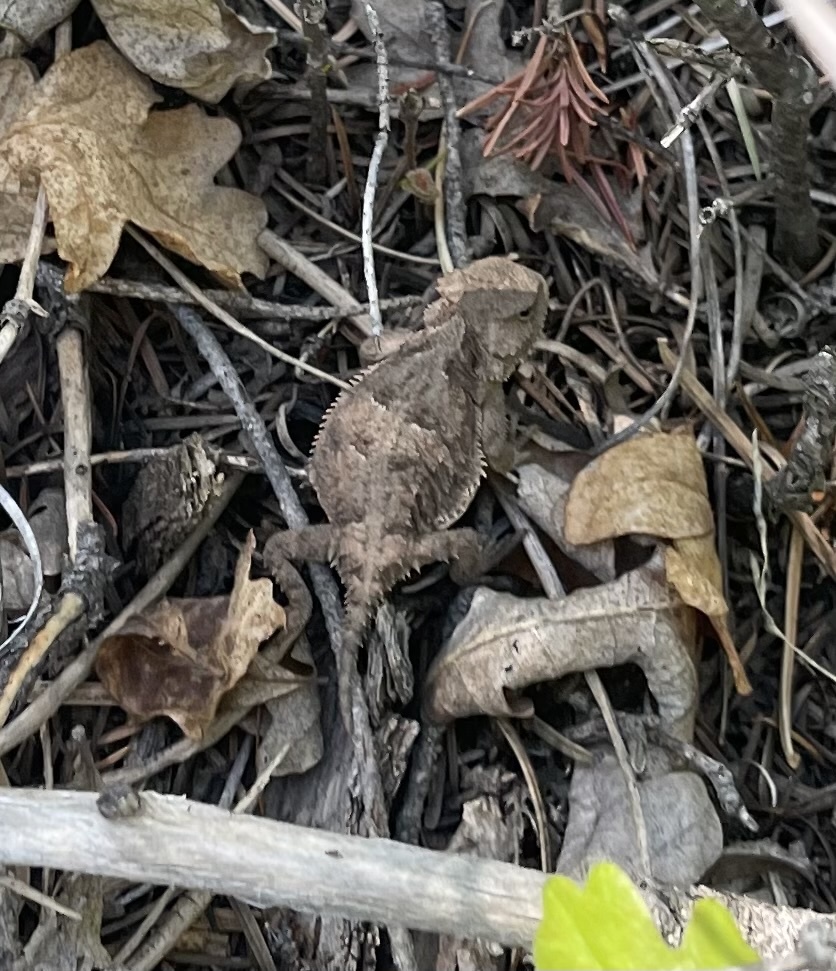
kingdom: Animalia
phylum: Chordata
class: Squamata
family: Phrynosomatidae
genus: Phrynosoma
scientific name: Phrynosoma hernandesi
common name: Greater short-horned lizard
